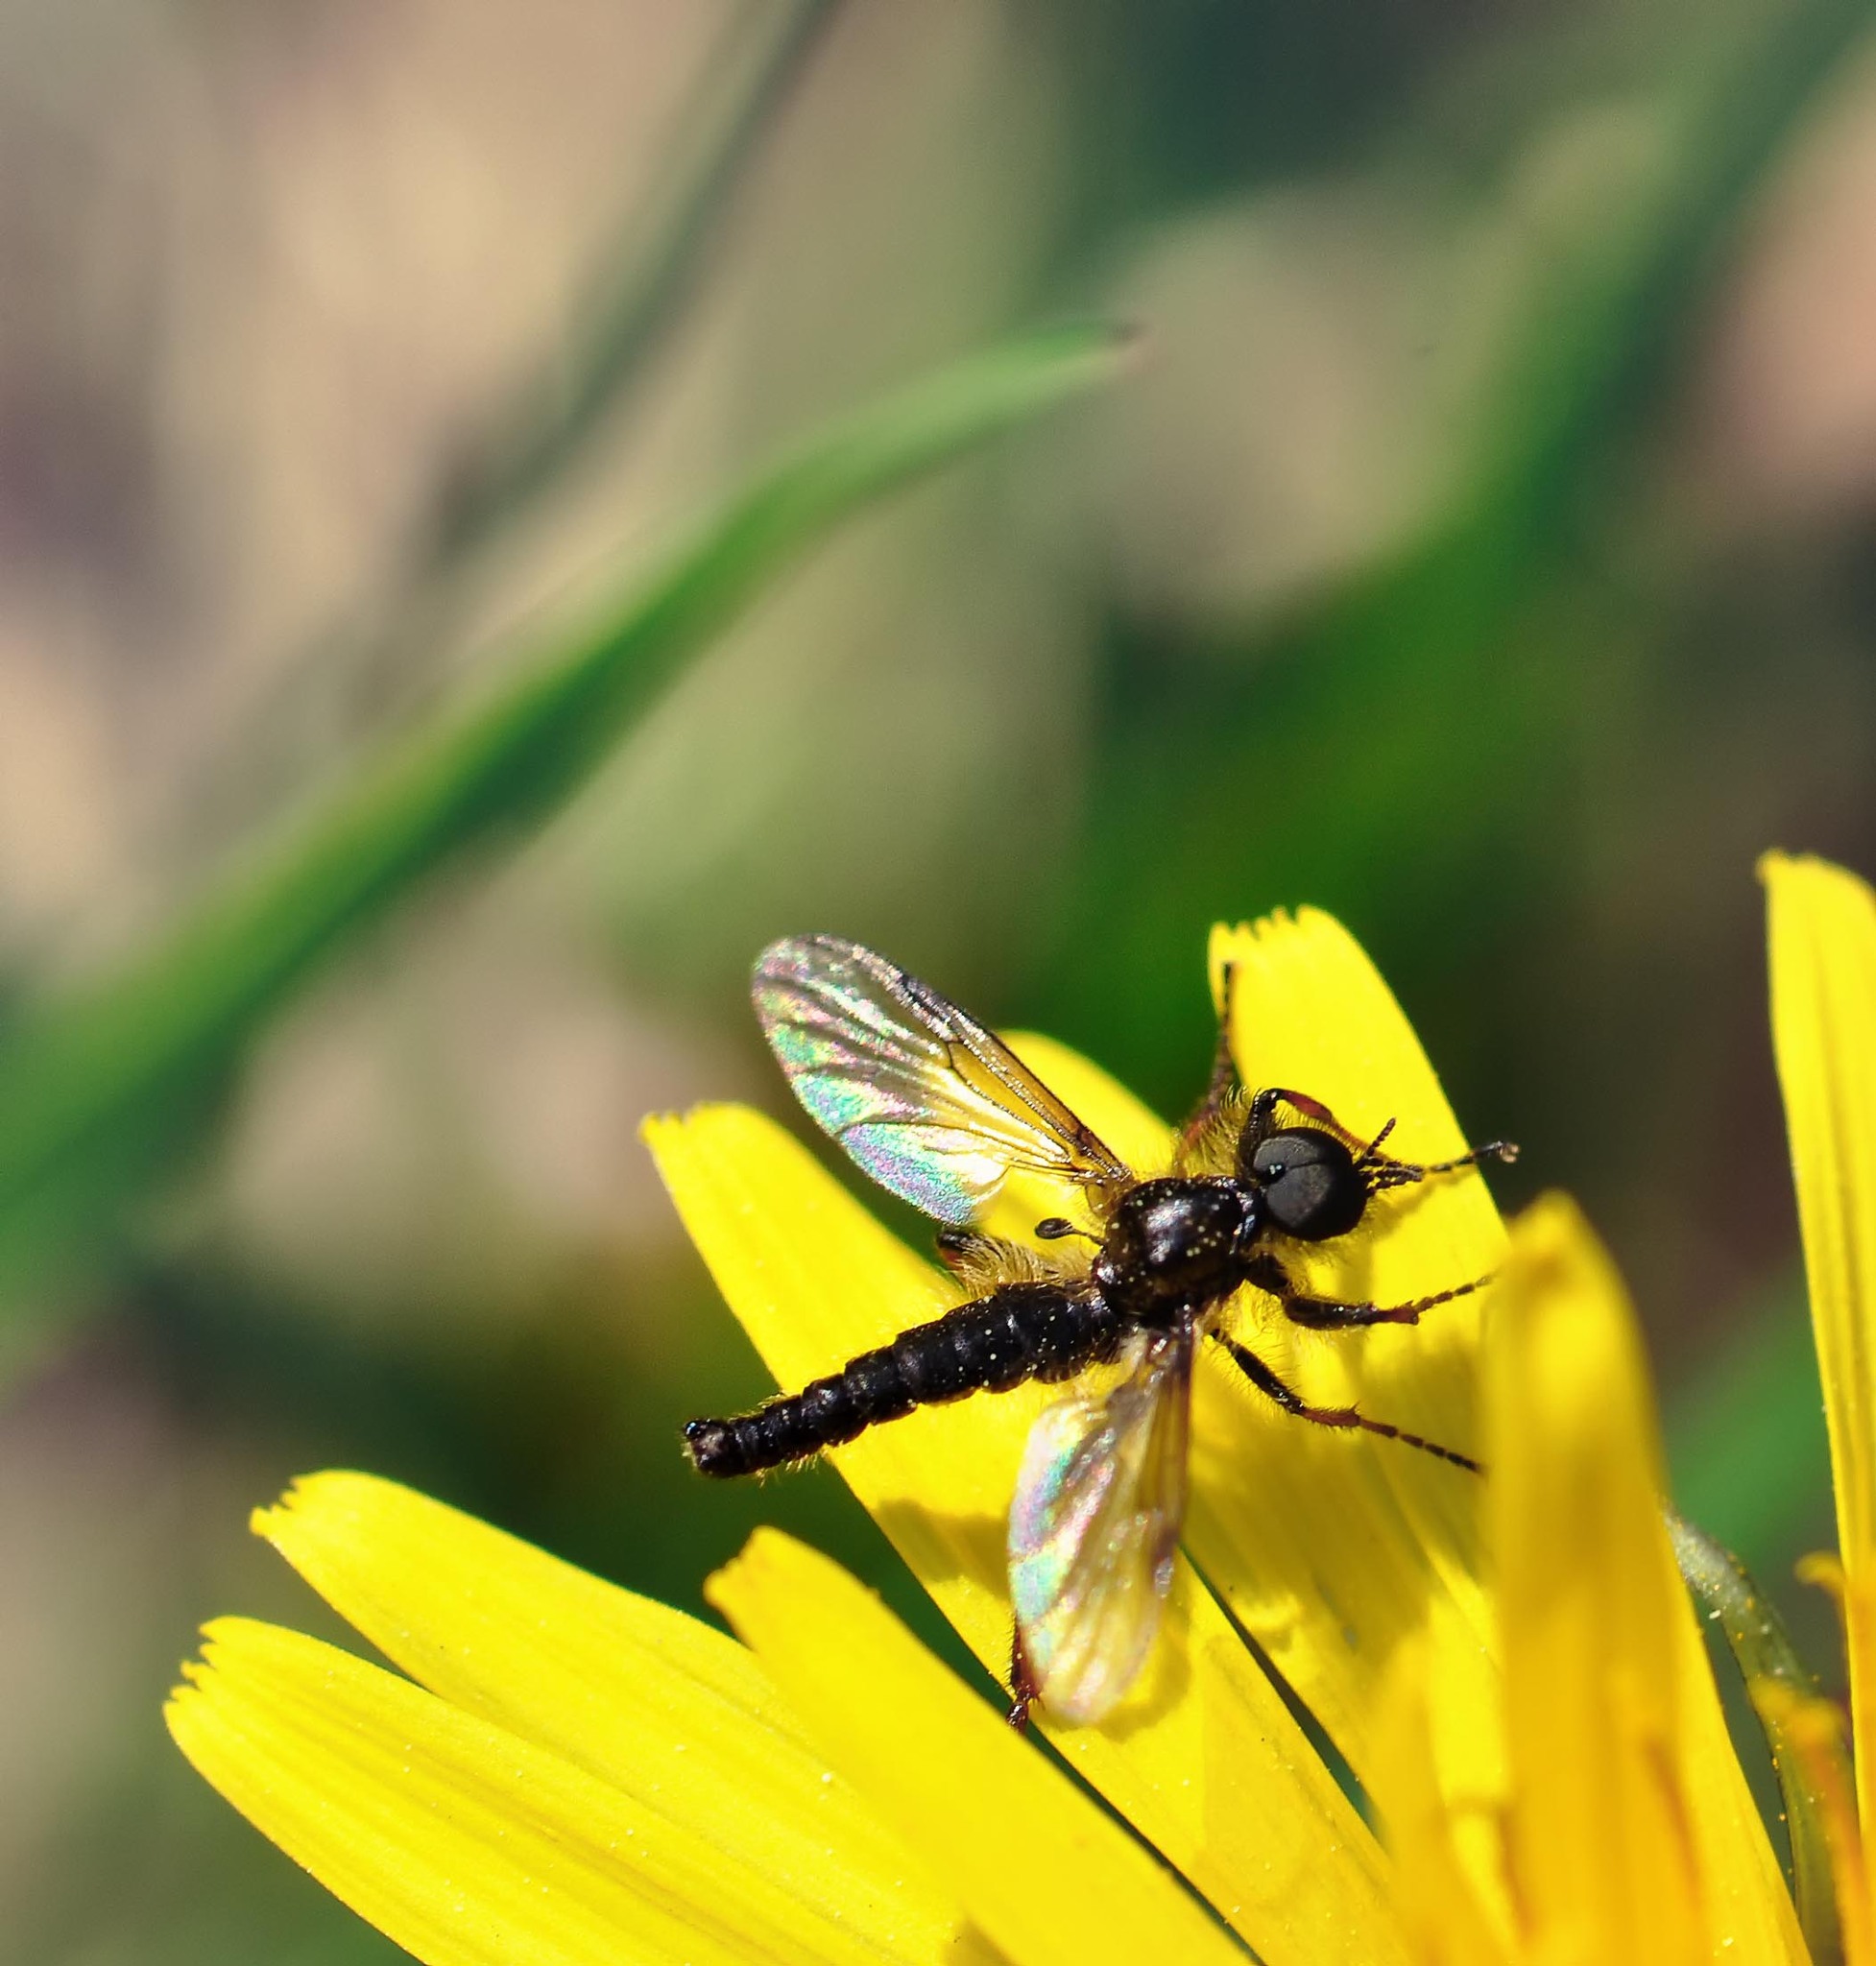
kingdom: Animalia
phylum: Arthropoda
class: Insecta
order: Diptera
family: Bibionidae
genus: Bibio
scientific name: Bibio lanigerus
